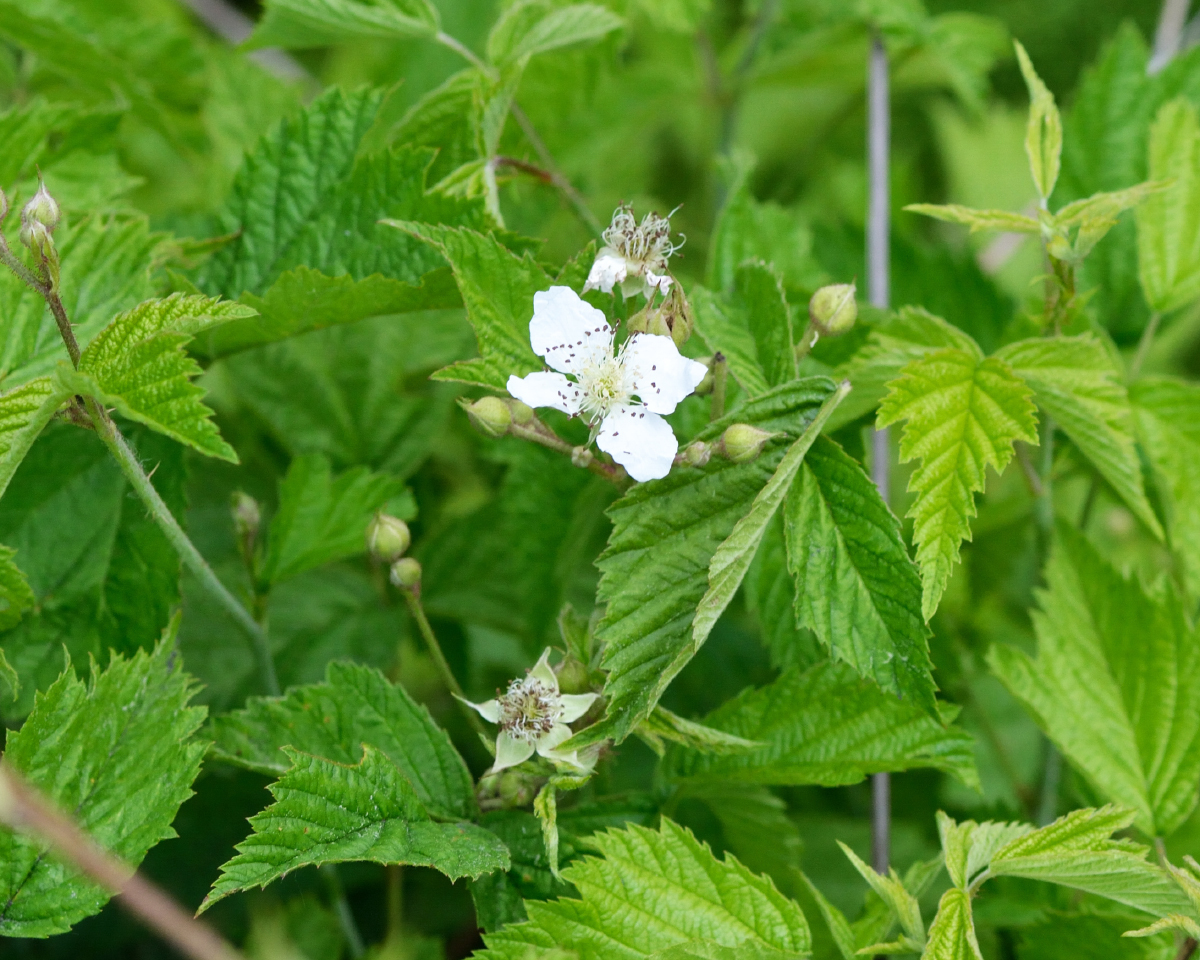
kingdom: Plantae
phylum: Tracheophyta
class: Magnoliopsida
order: Rosales
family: Rosaceae
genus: Rubus
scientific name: Rubus caesius
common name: Dewberry
